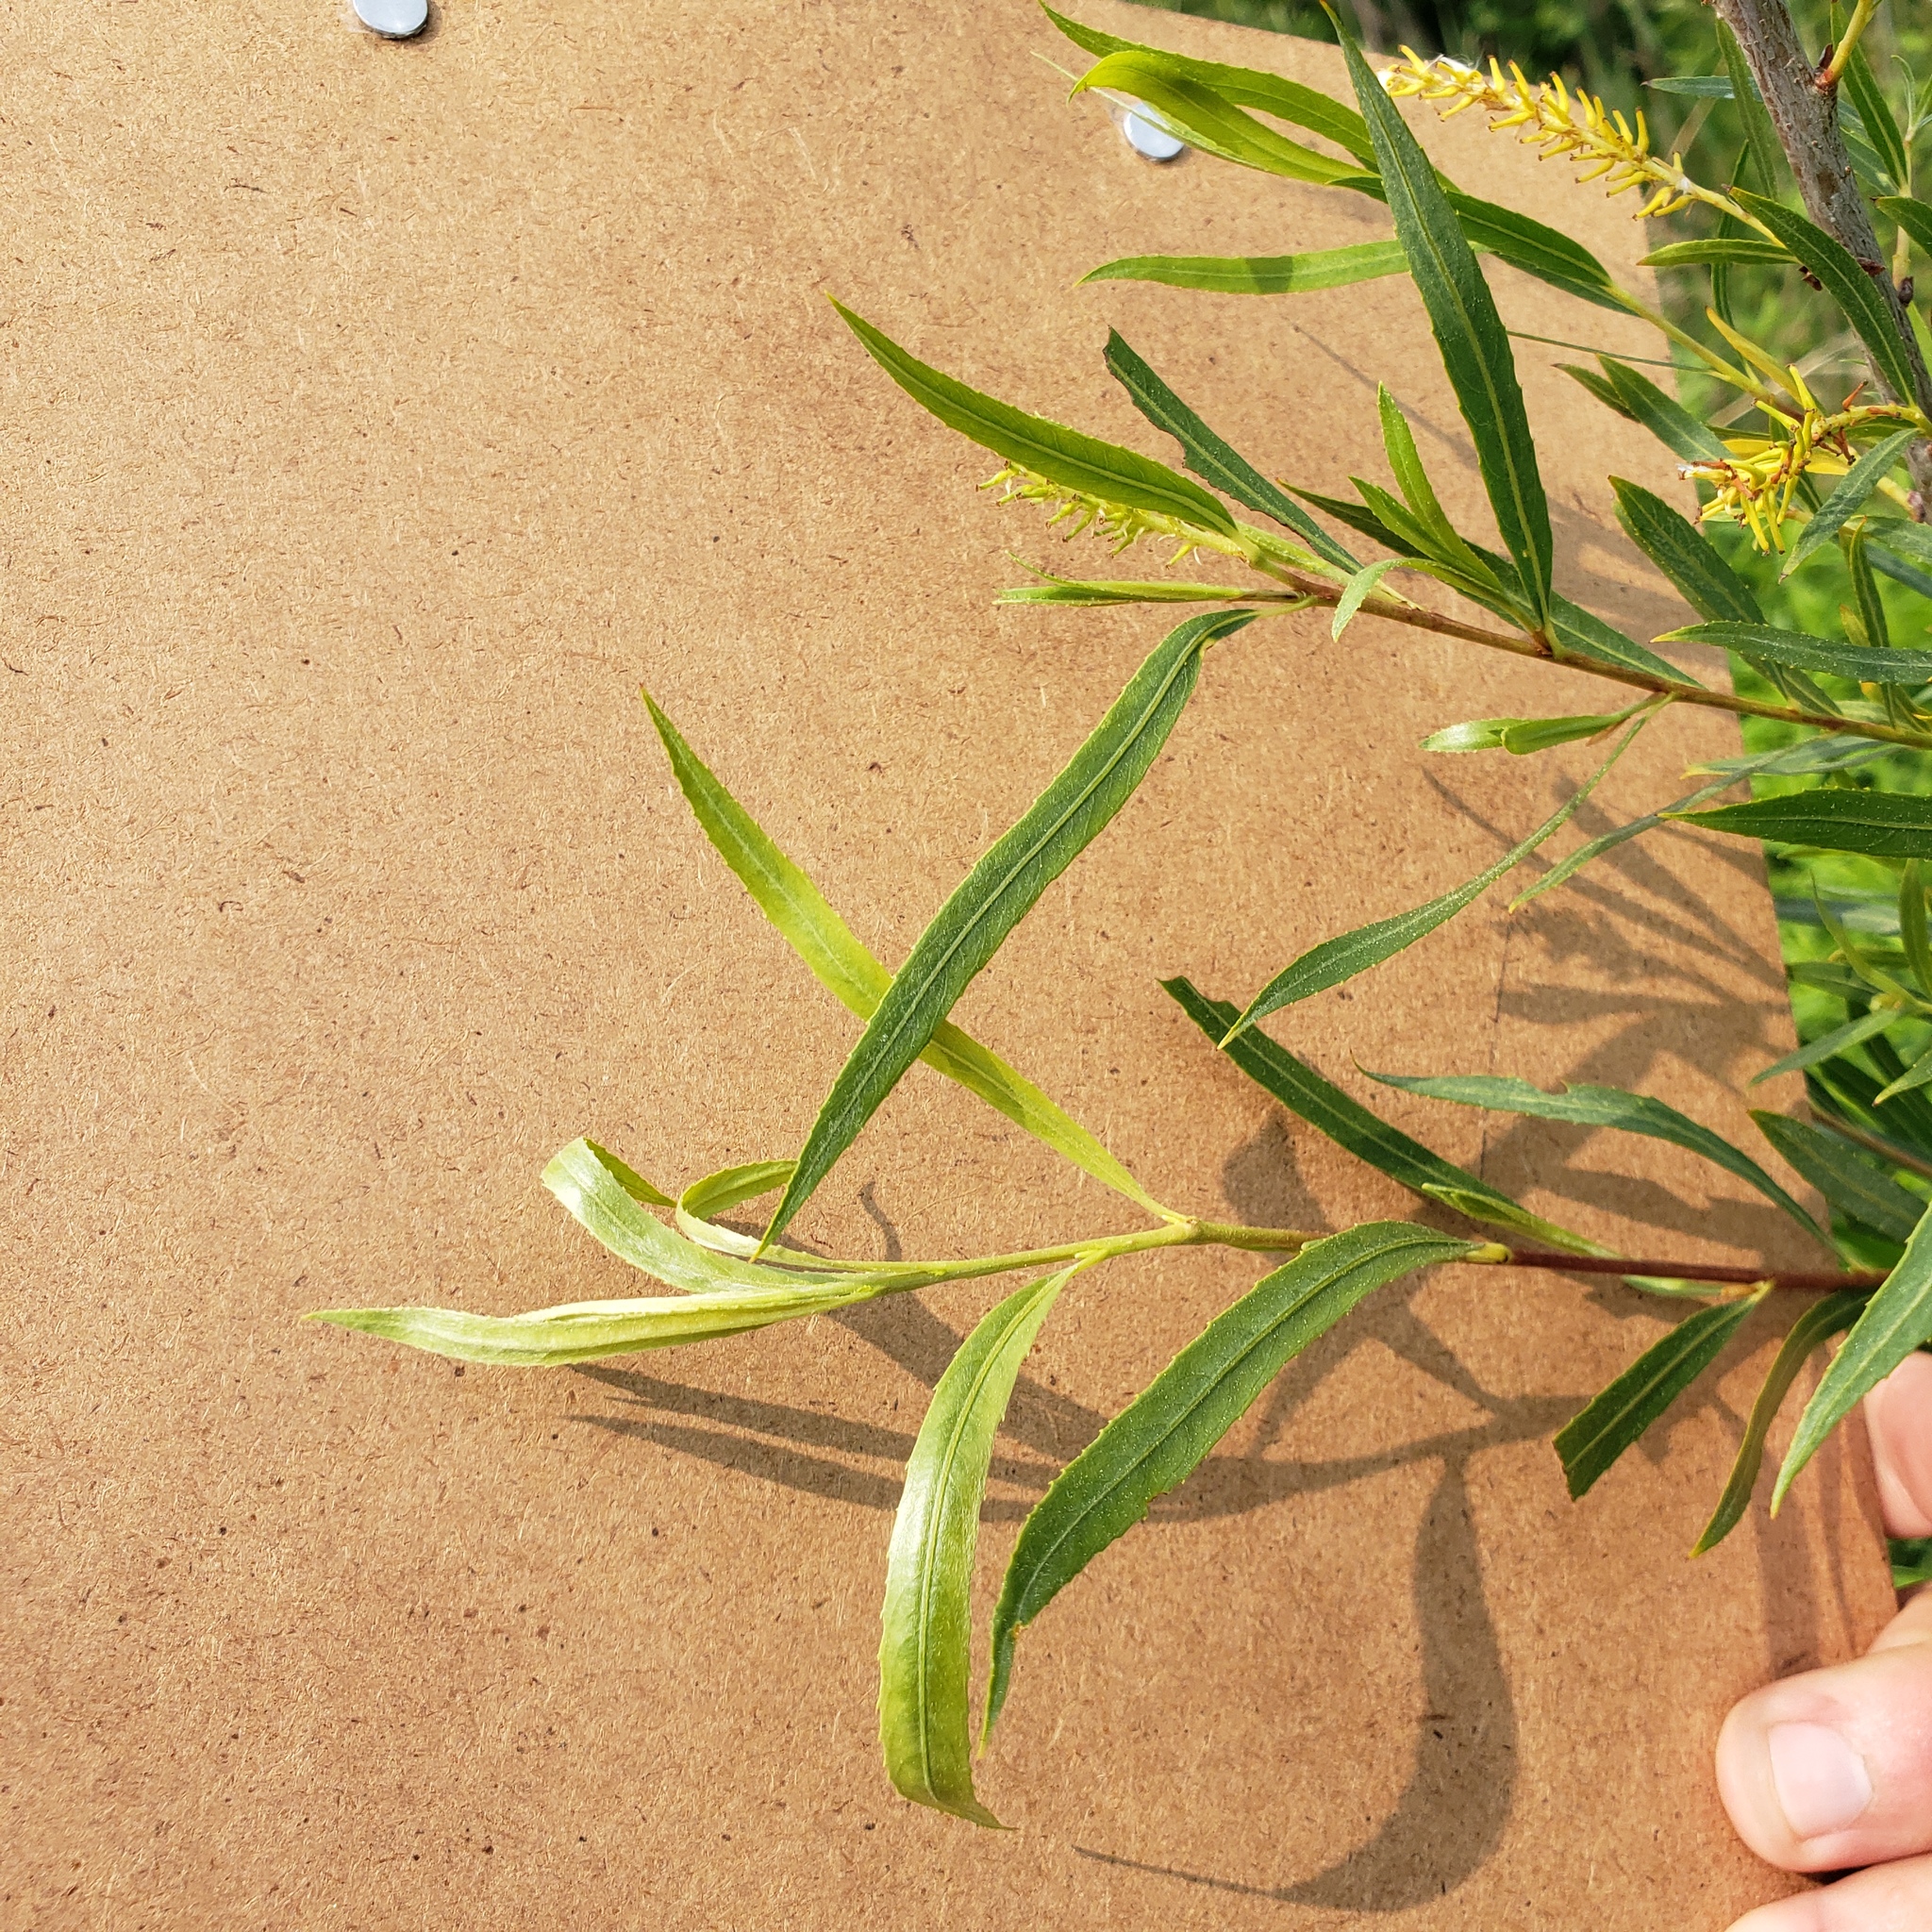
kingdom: Plantae
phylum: Tracheophyta
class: Magnoliopsida
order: Malpighiales
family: Salicaceae
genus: Salix
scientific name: Salix interior
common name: Sandbar willow
